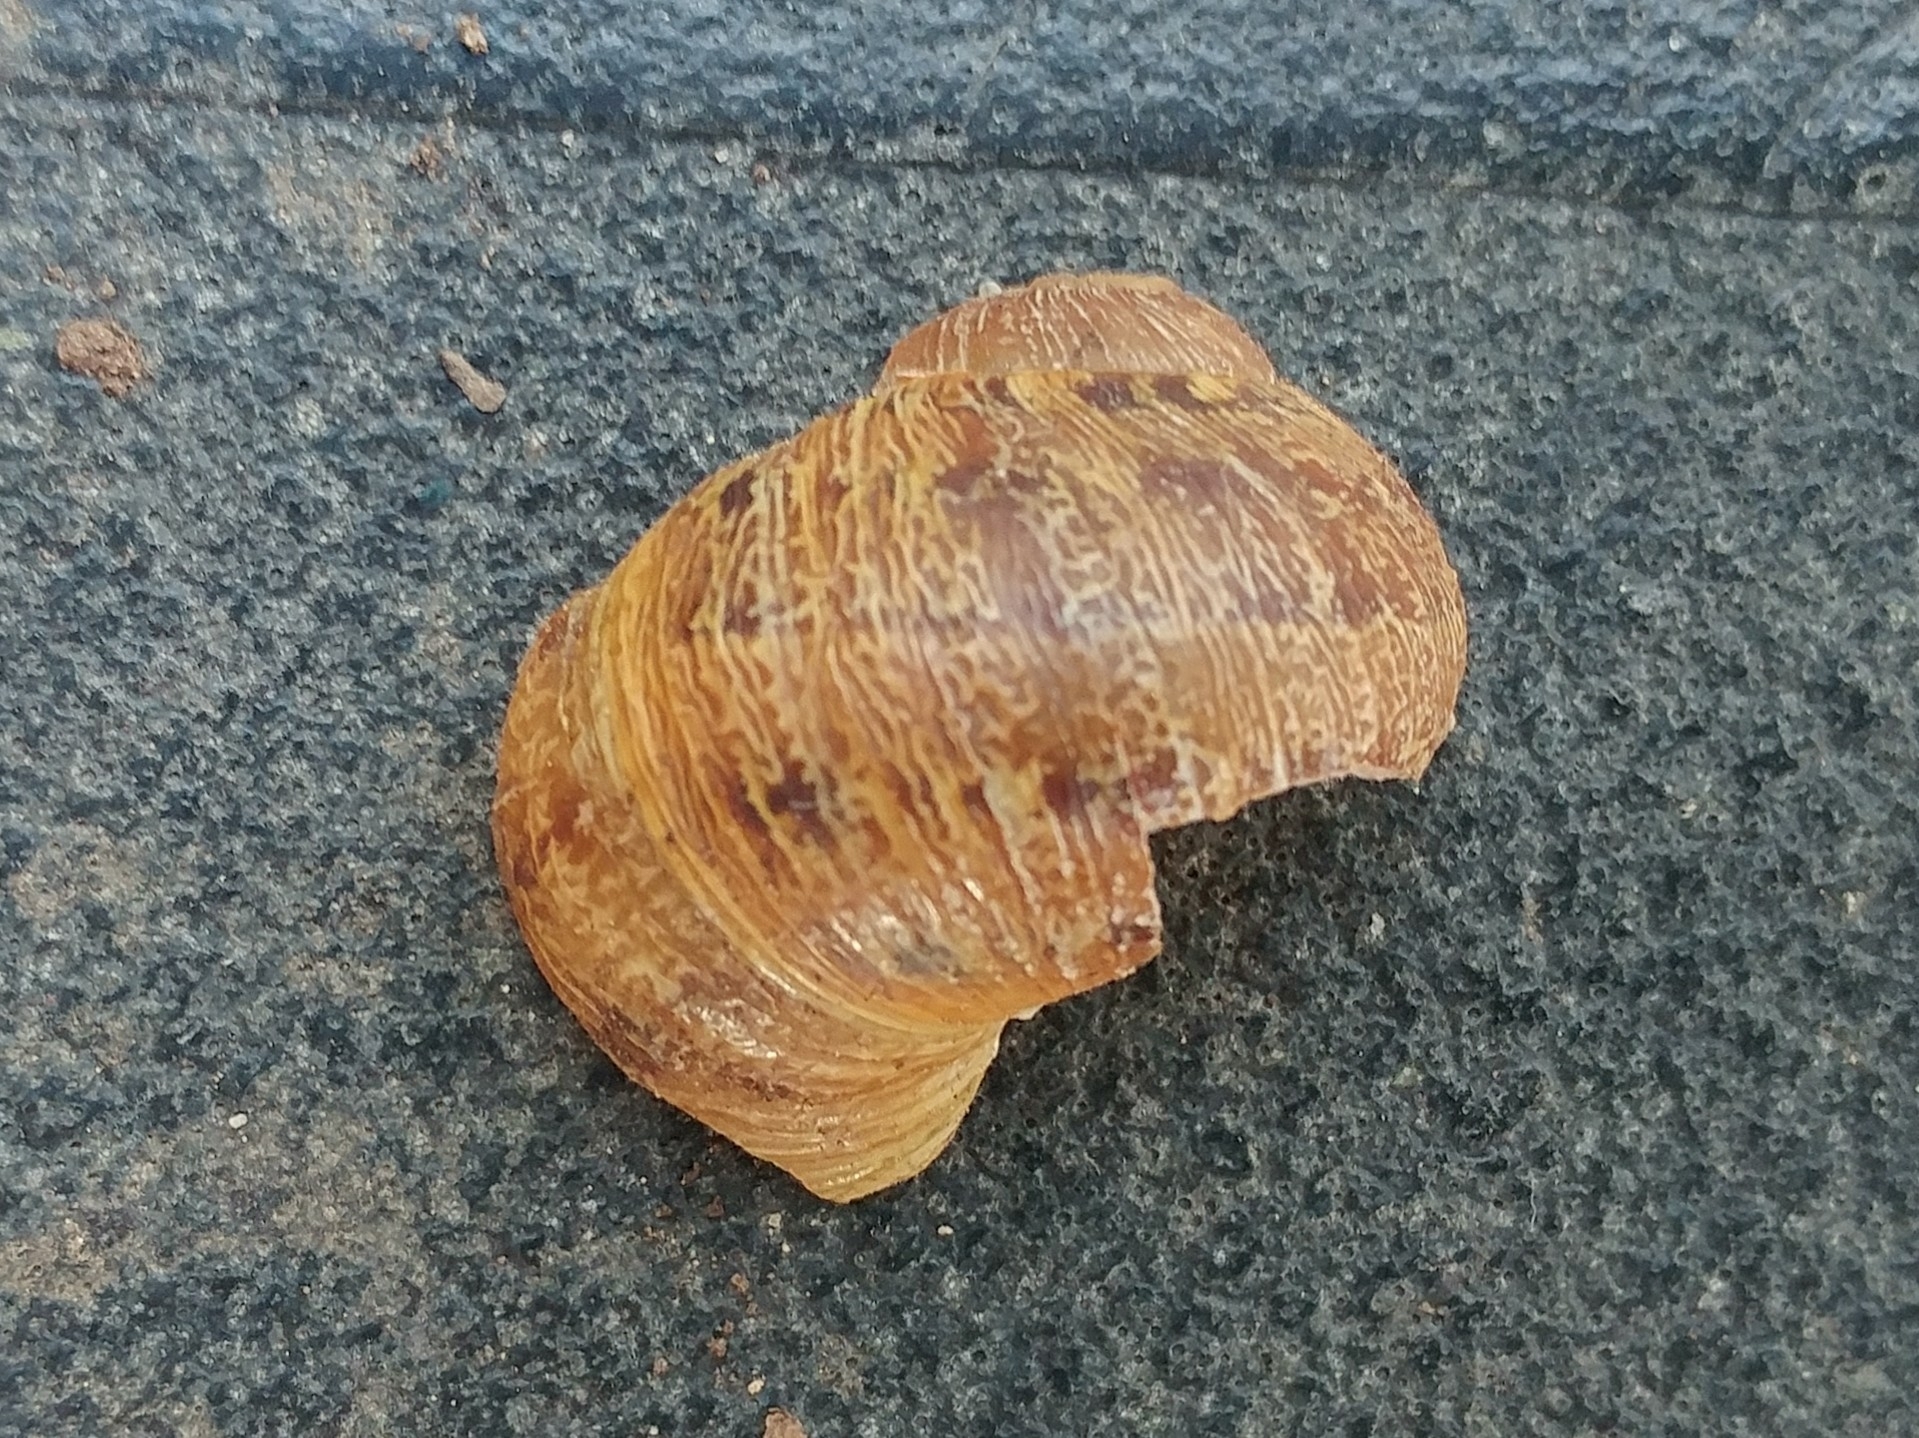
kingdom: Animalia
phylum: Mollusca
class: Gastropoda
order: Stylommatophora
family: Helicidae
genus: Cornu
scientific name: Cornu aspersum
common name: Brown garden snail
